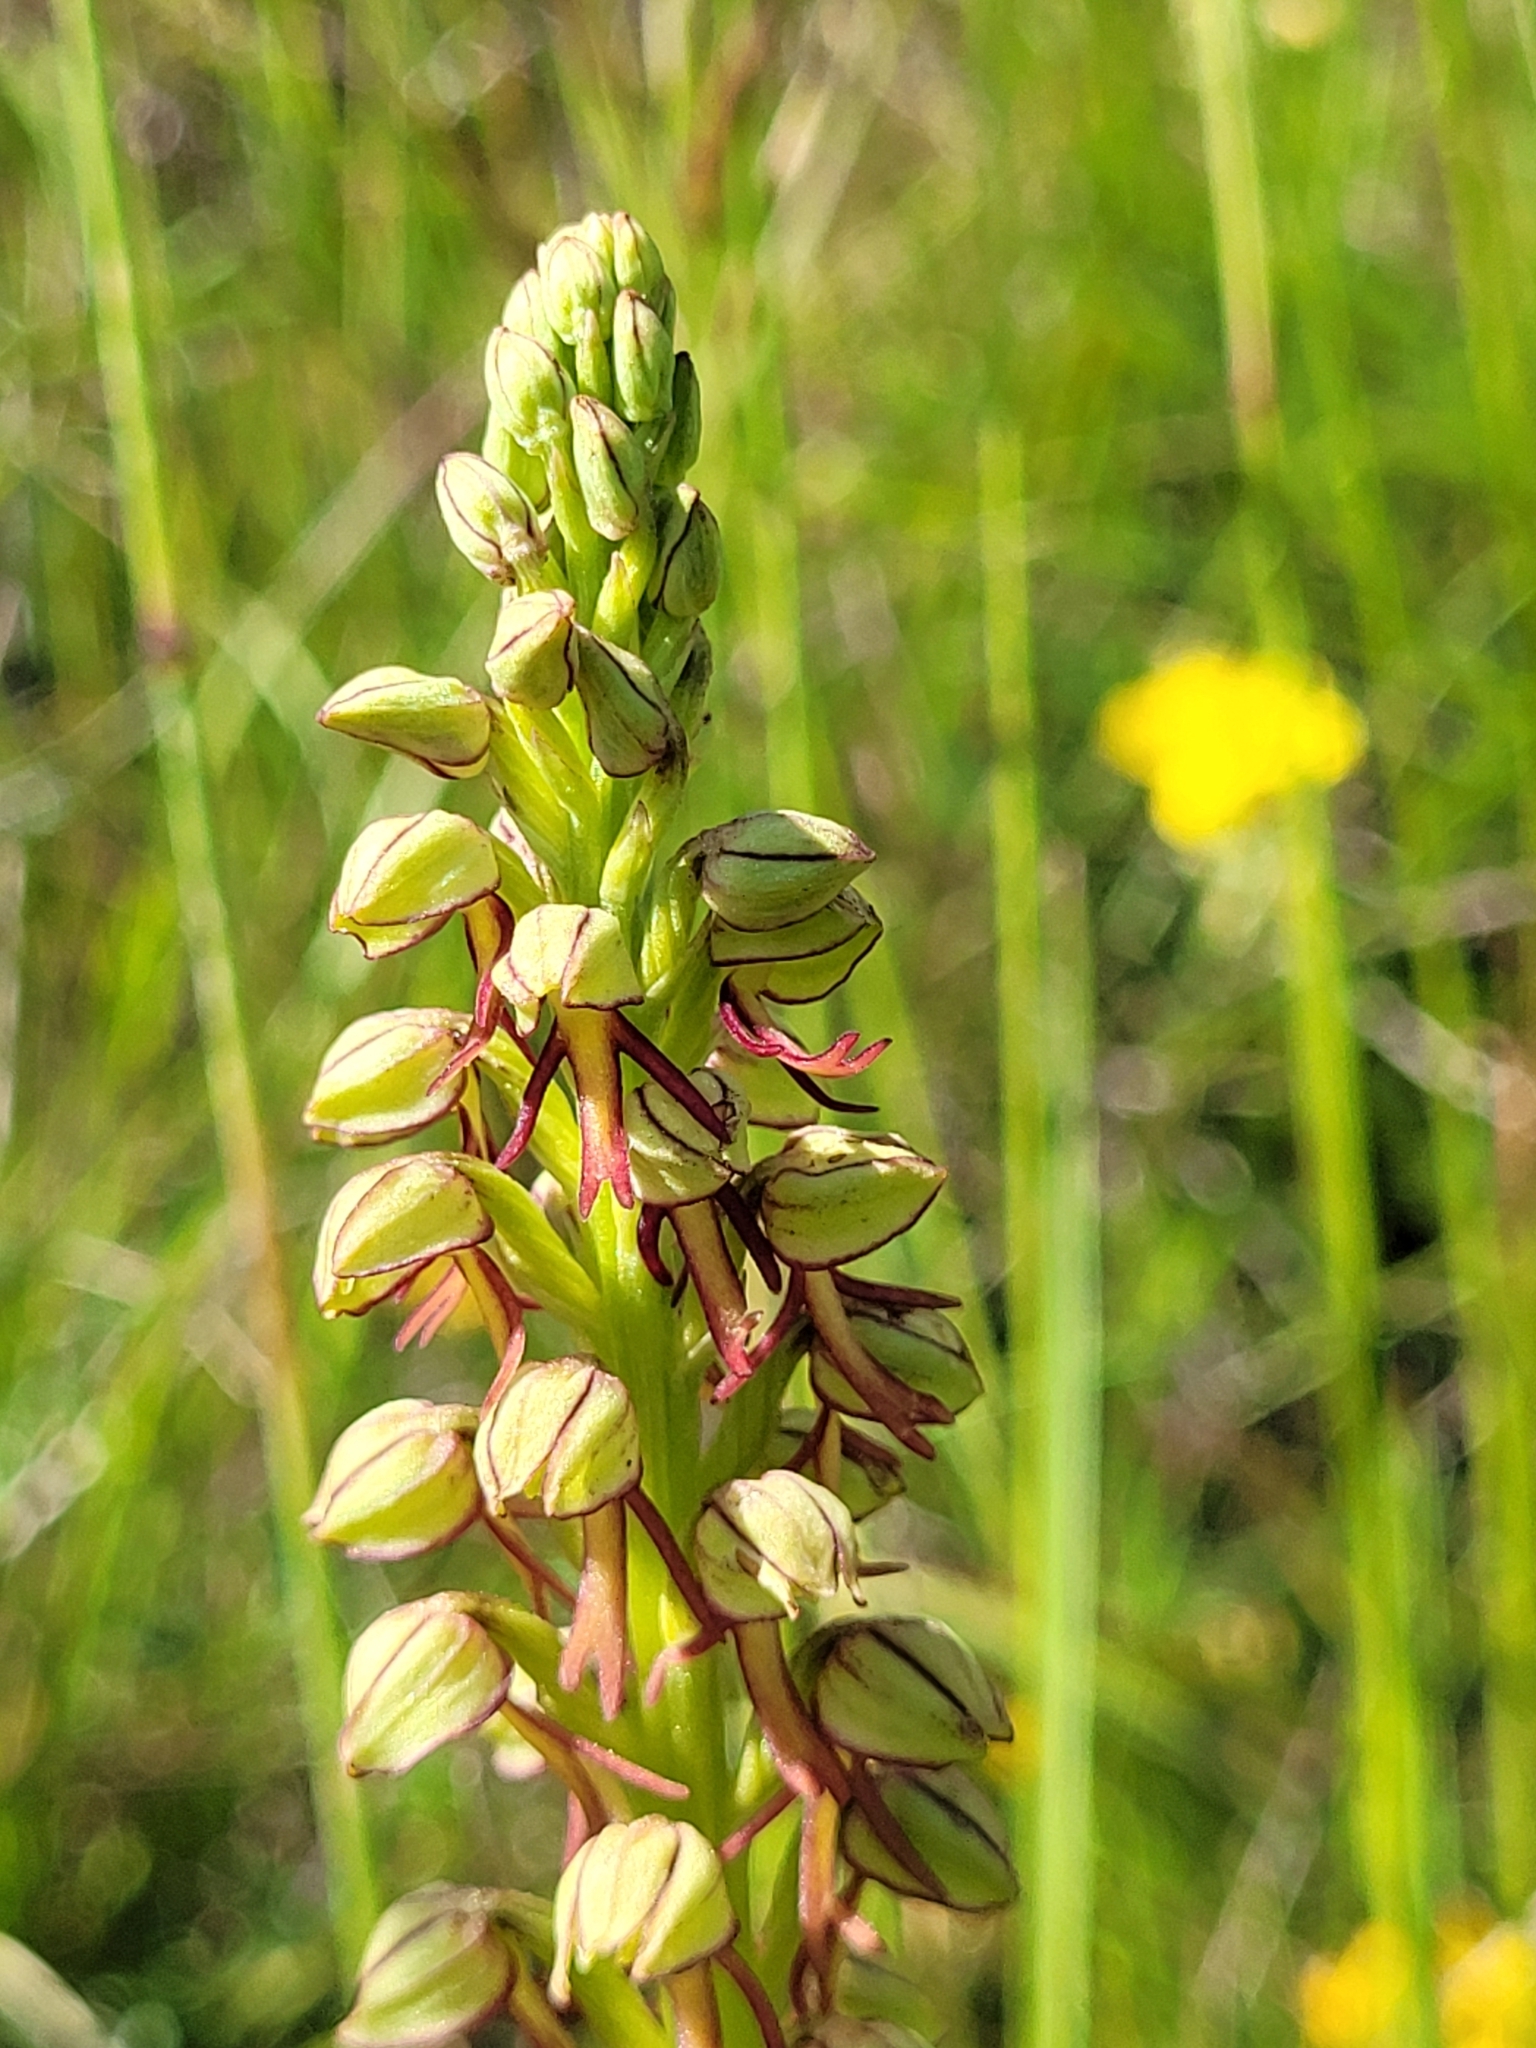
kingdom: Plantae
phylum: Tracheophyta
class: Liliopsida
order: Asparagales
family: Orchidaceae
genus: Orchis
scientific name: Orchis anthropophora
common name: Man orchid
